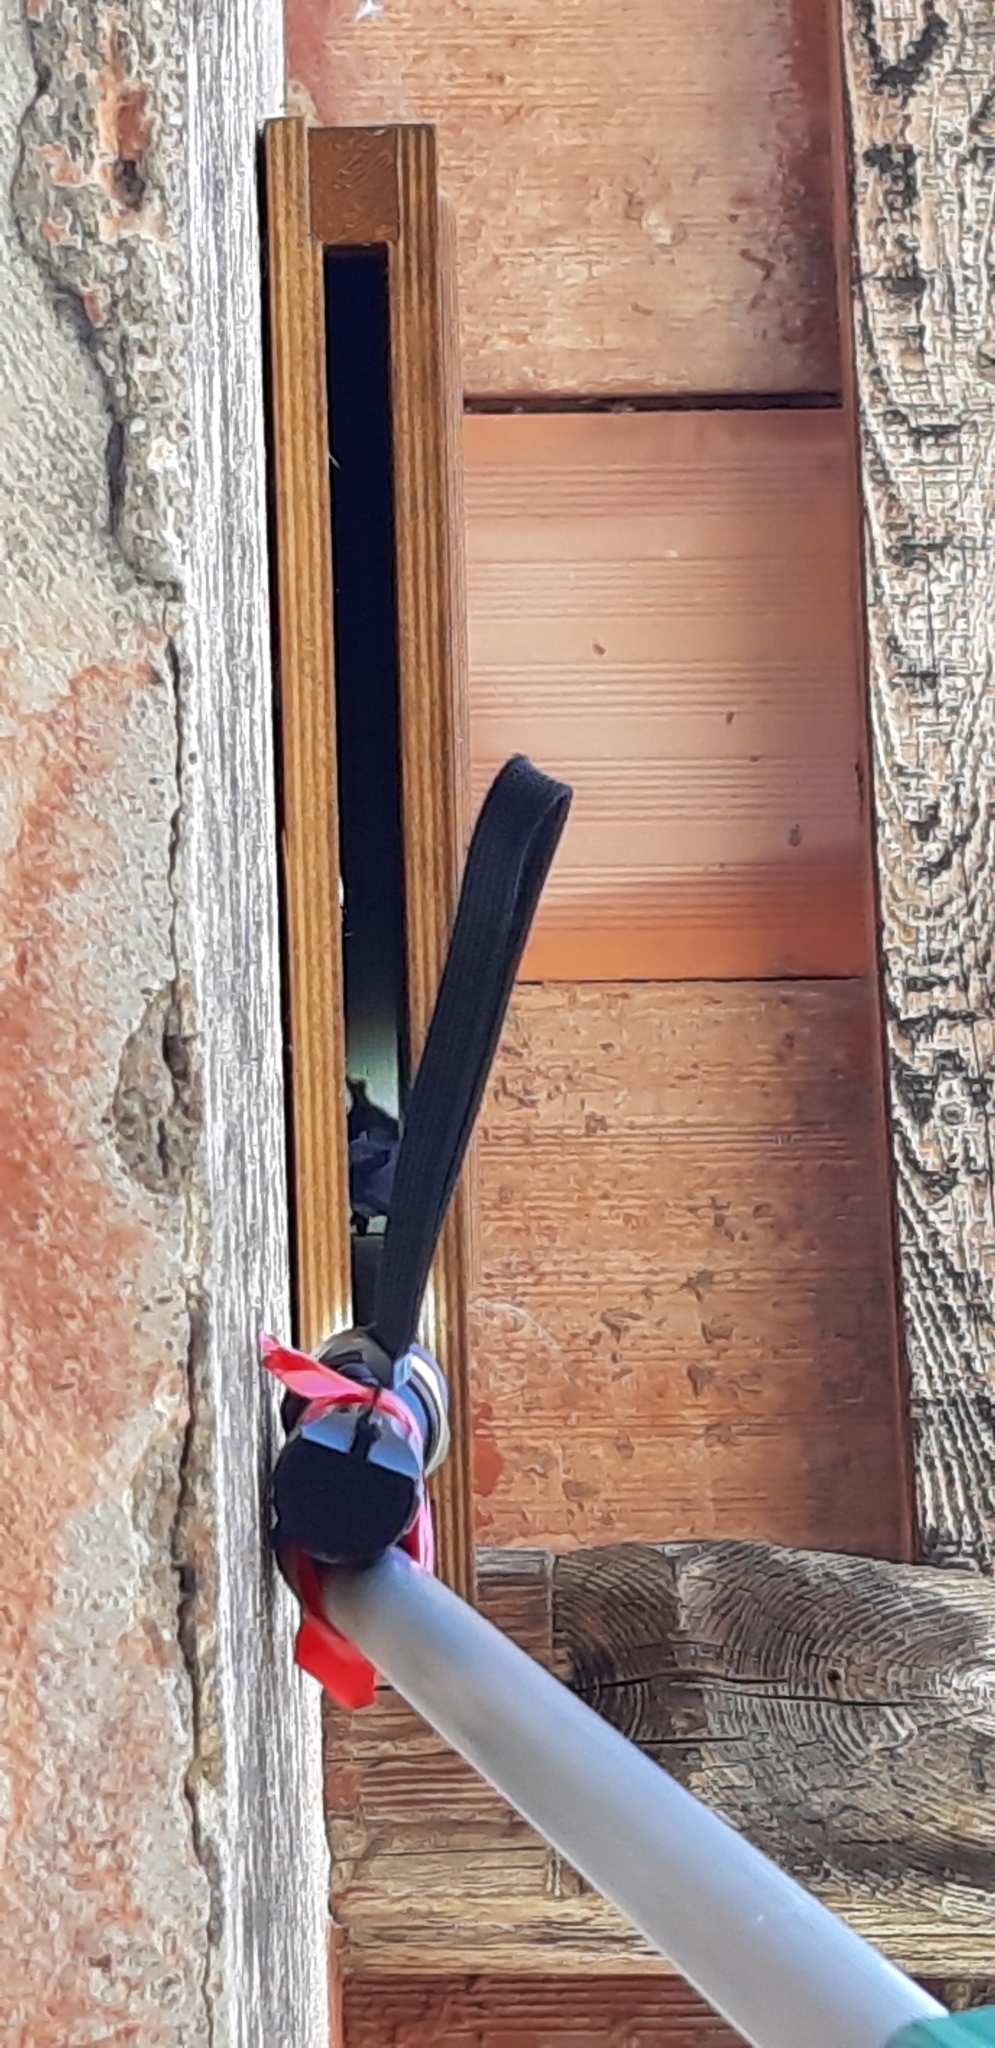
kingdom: Animalia
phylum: Chordata
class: Mammalia
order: Chiroptera
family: Vespertilionidae
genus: Pipistrellus
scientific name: Pipistrellus kuhlii
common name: Kuhl's pipistrelle
